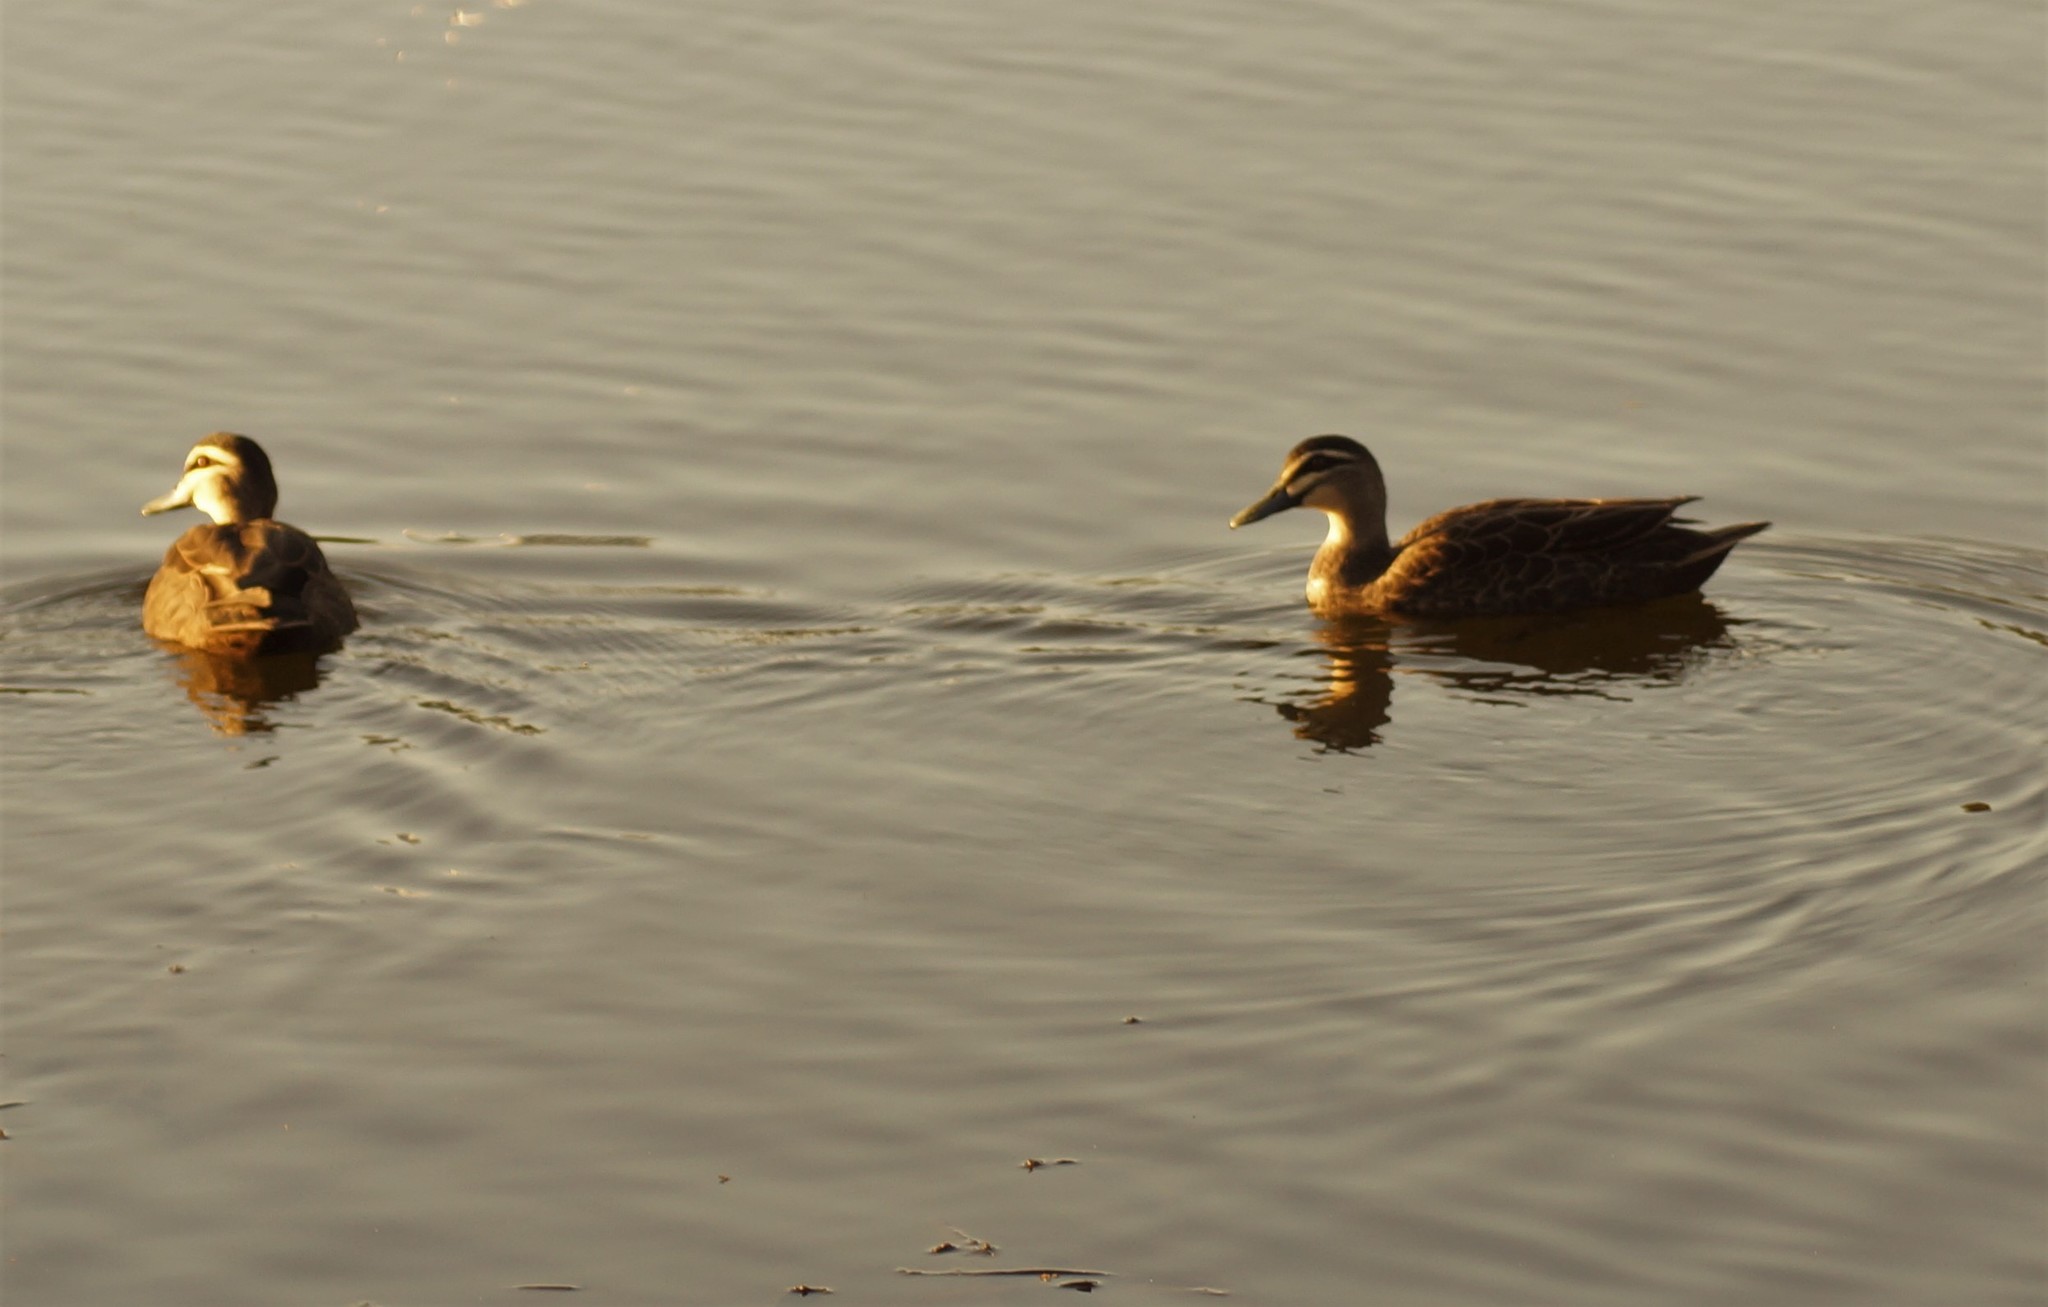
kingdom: Animalia
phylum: Chordata
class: Aves
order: Anseriformes
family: Anatidae
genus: Anas
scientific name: Anas superciliosa
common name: Pacific black duck
